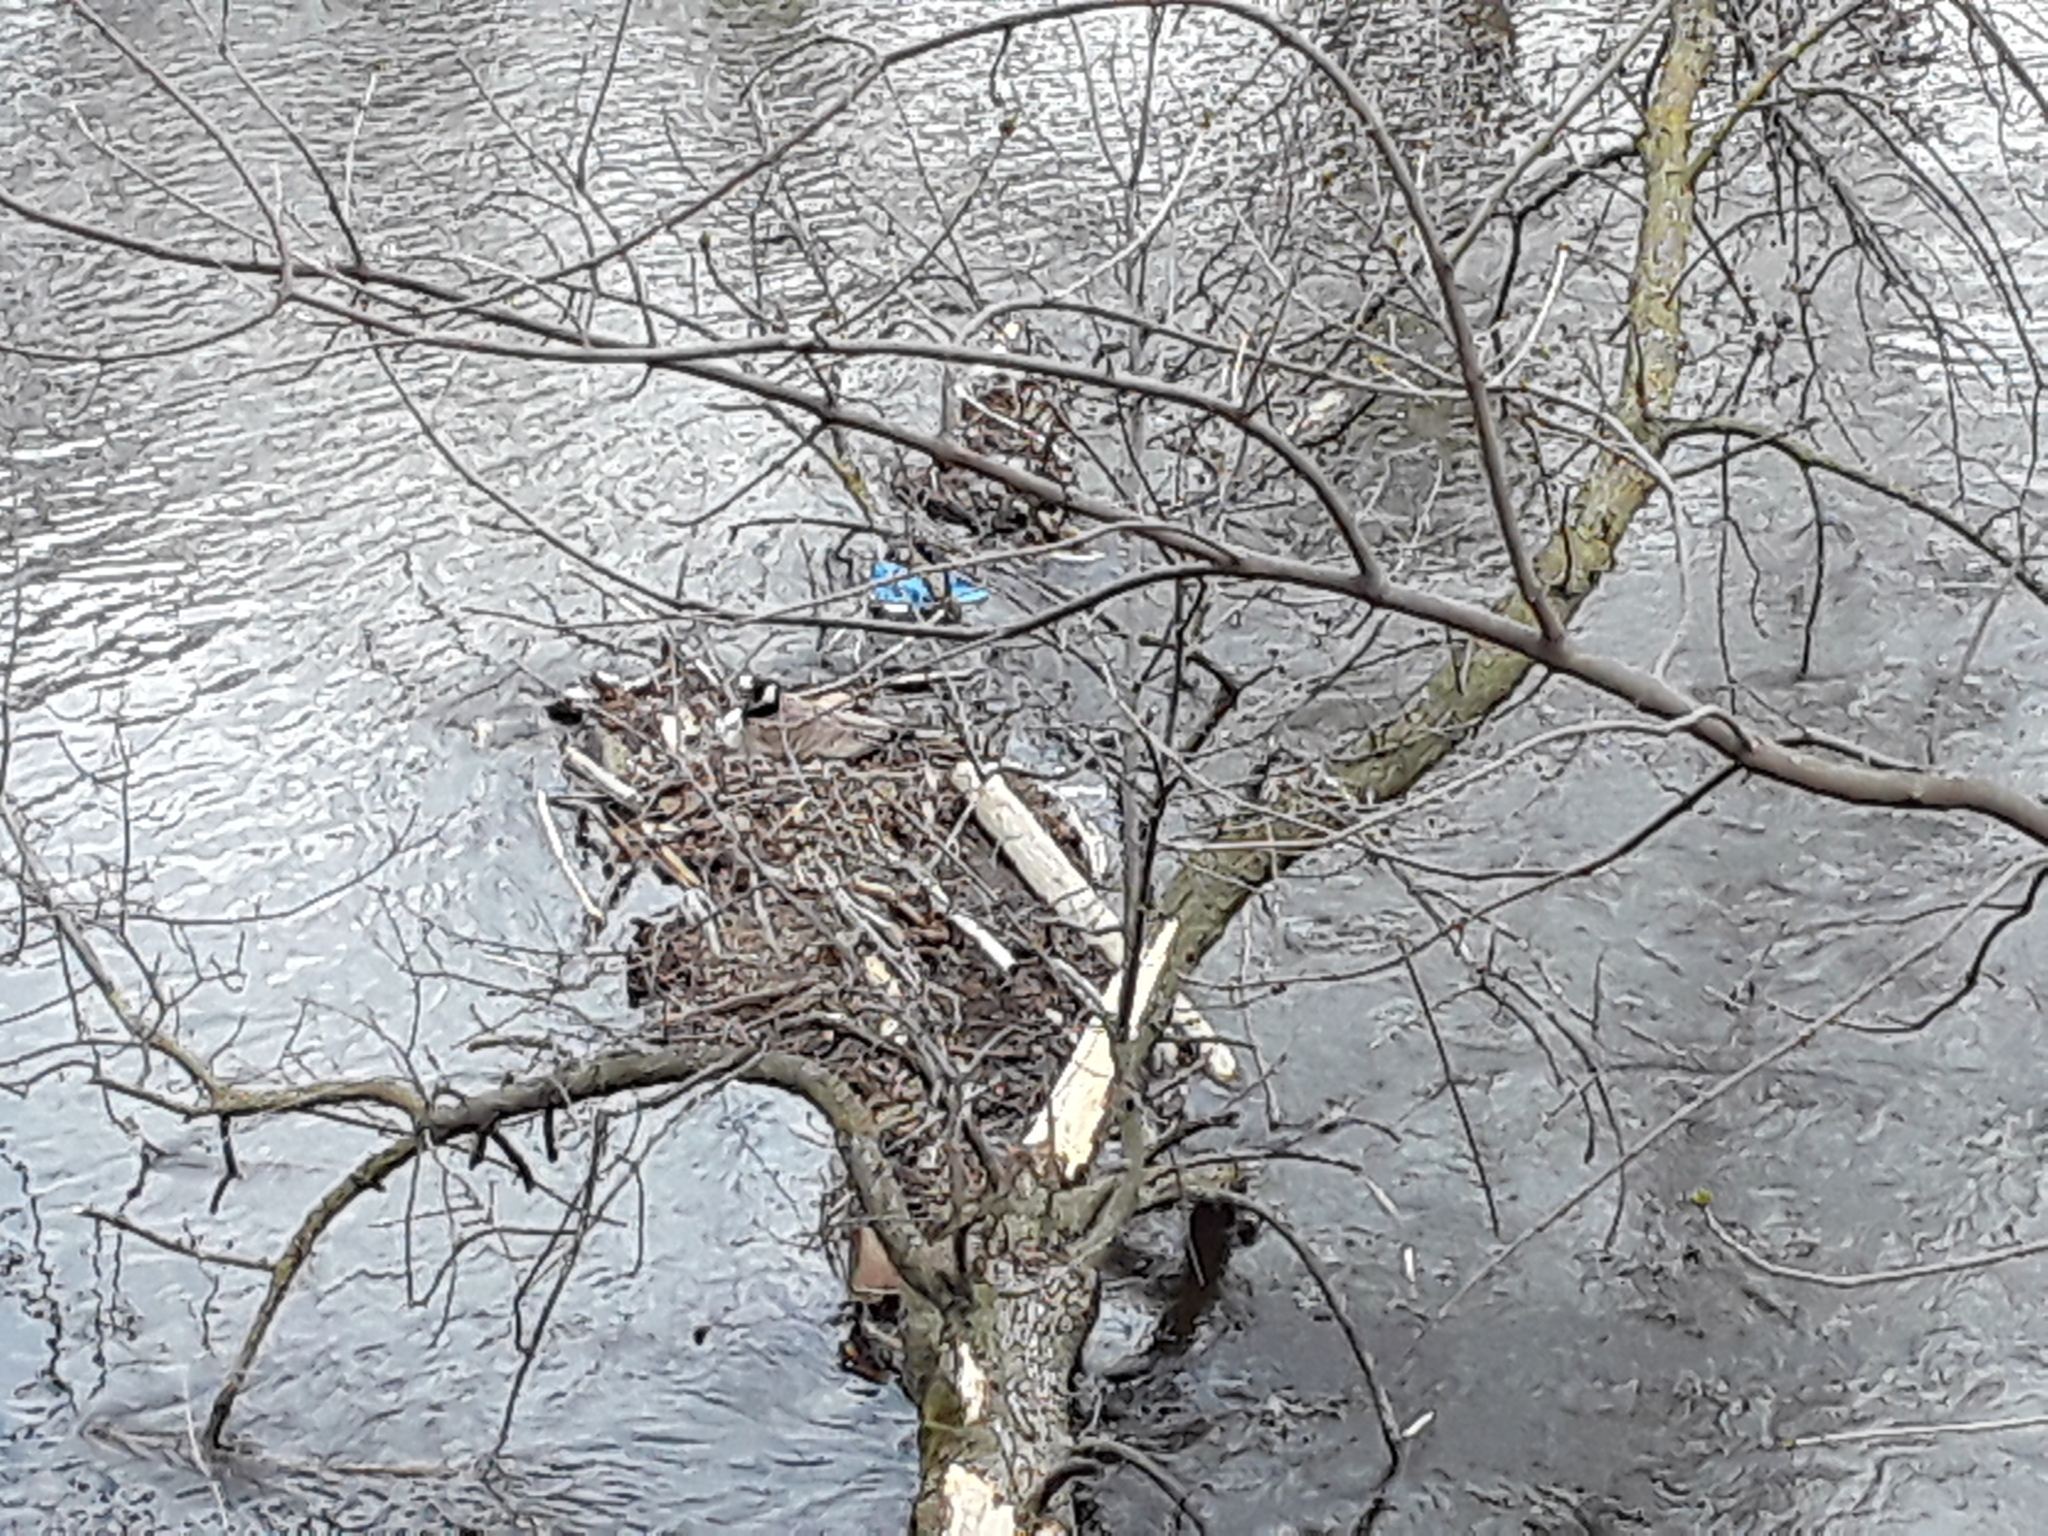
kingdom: Animalia
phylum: Chordata
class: Aves
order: Anseriformes
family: Anatidae
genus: Branta
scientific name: Branta canadensis
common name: Canada goose
